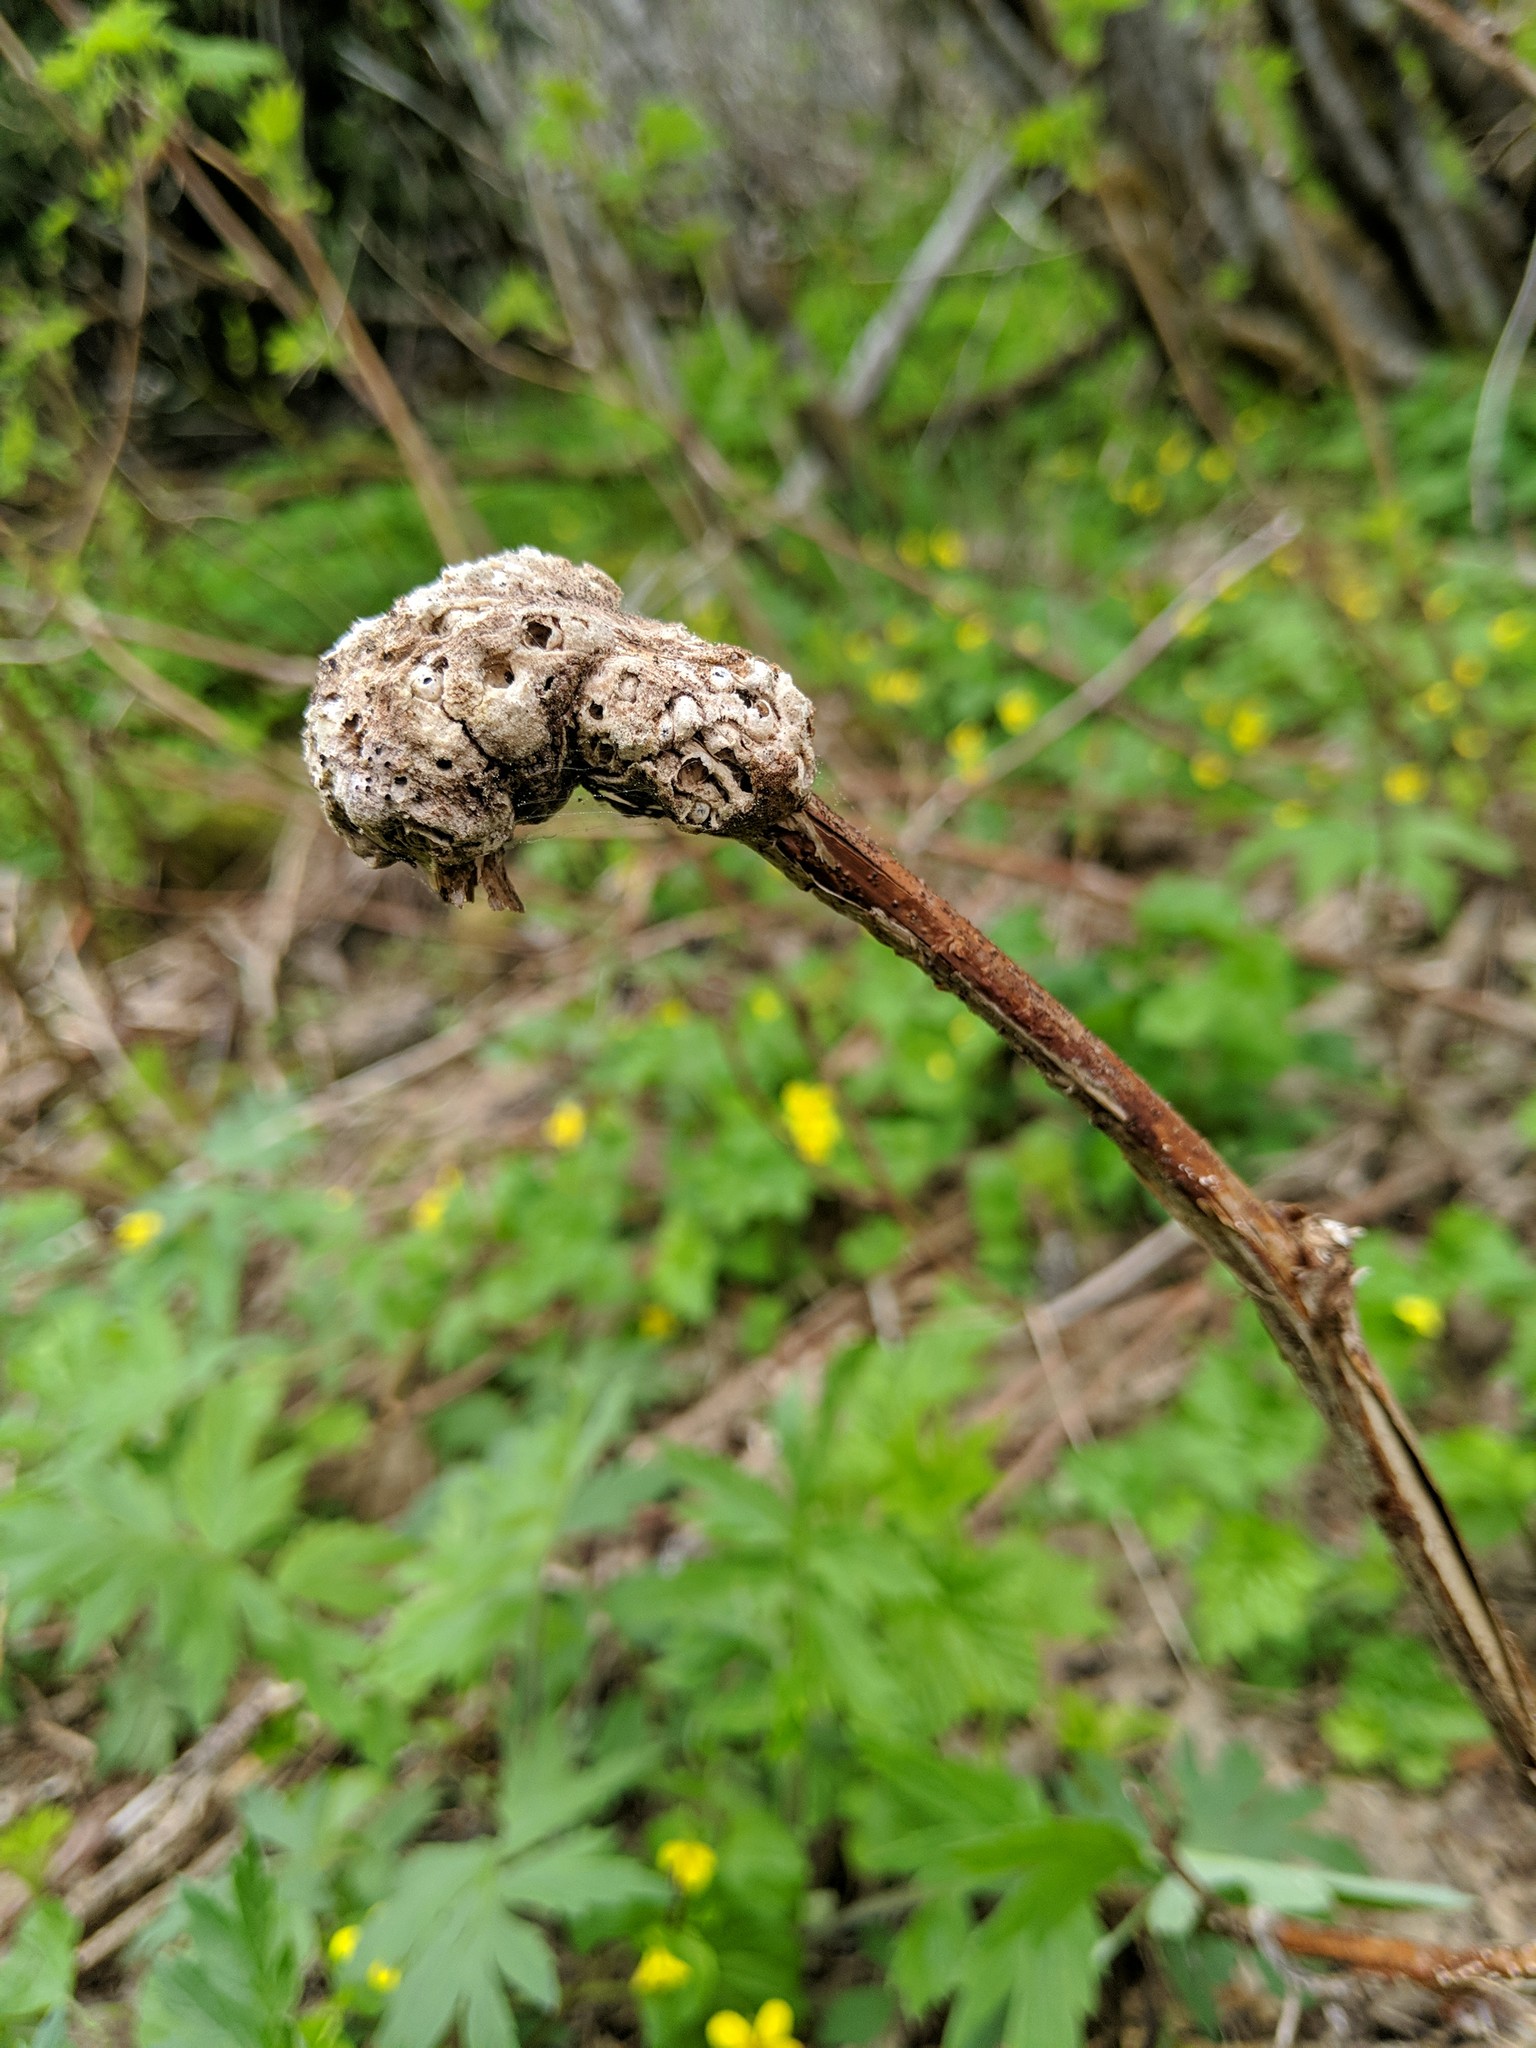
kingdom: Animalia
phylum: Arthropoda
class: Insecta
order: Hymenoptera
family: Cynipidae
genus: Diastrophus
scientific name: Diastrophus
